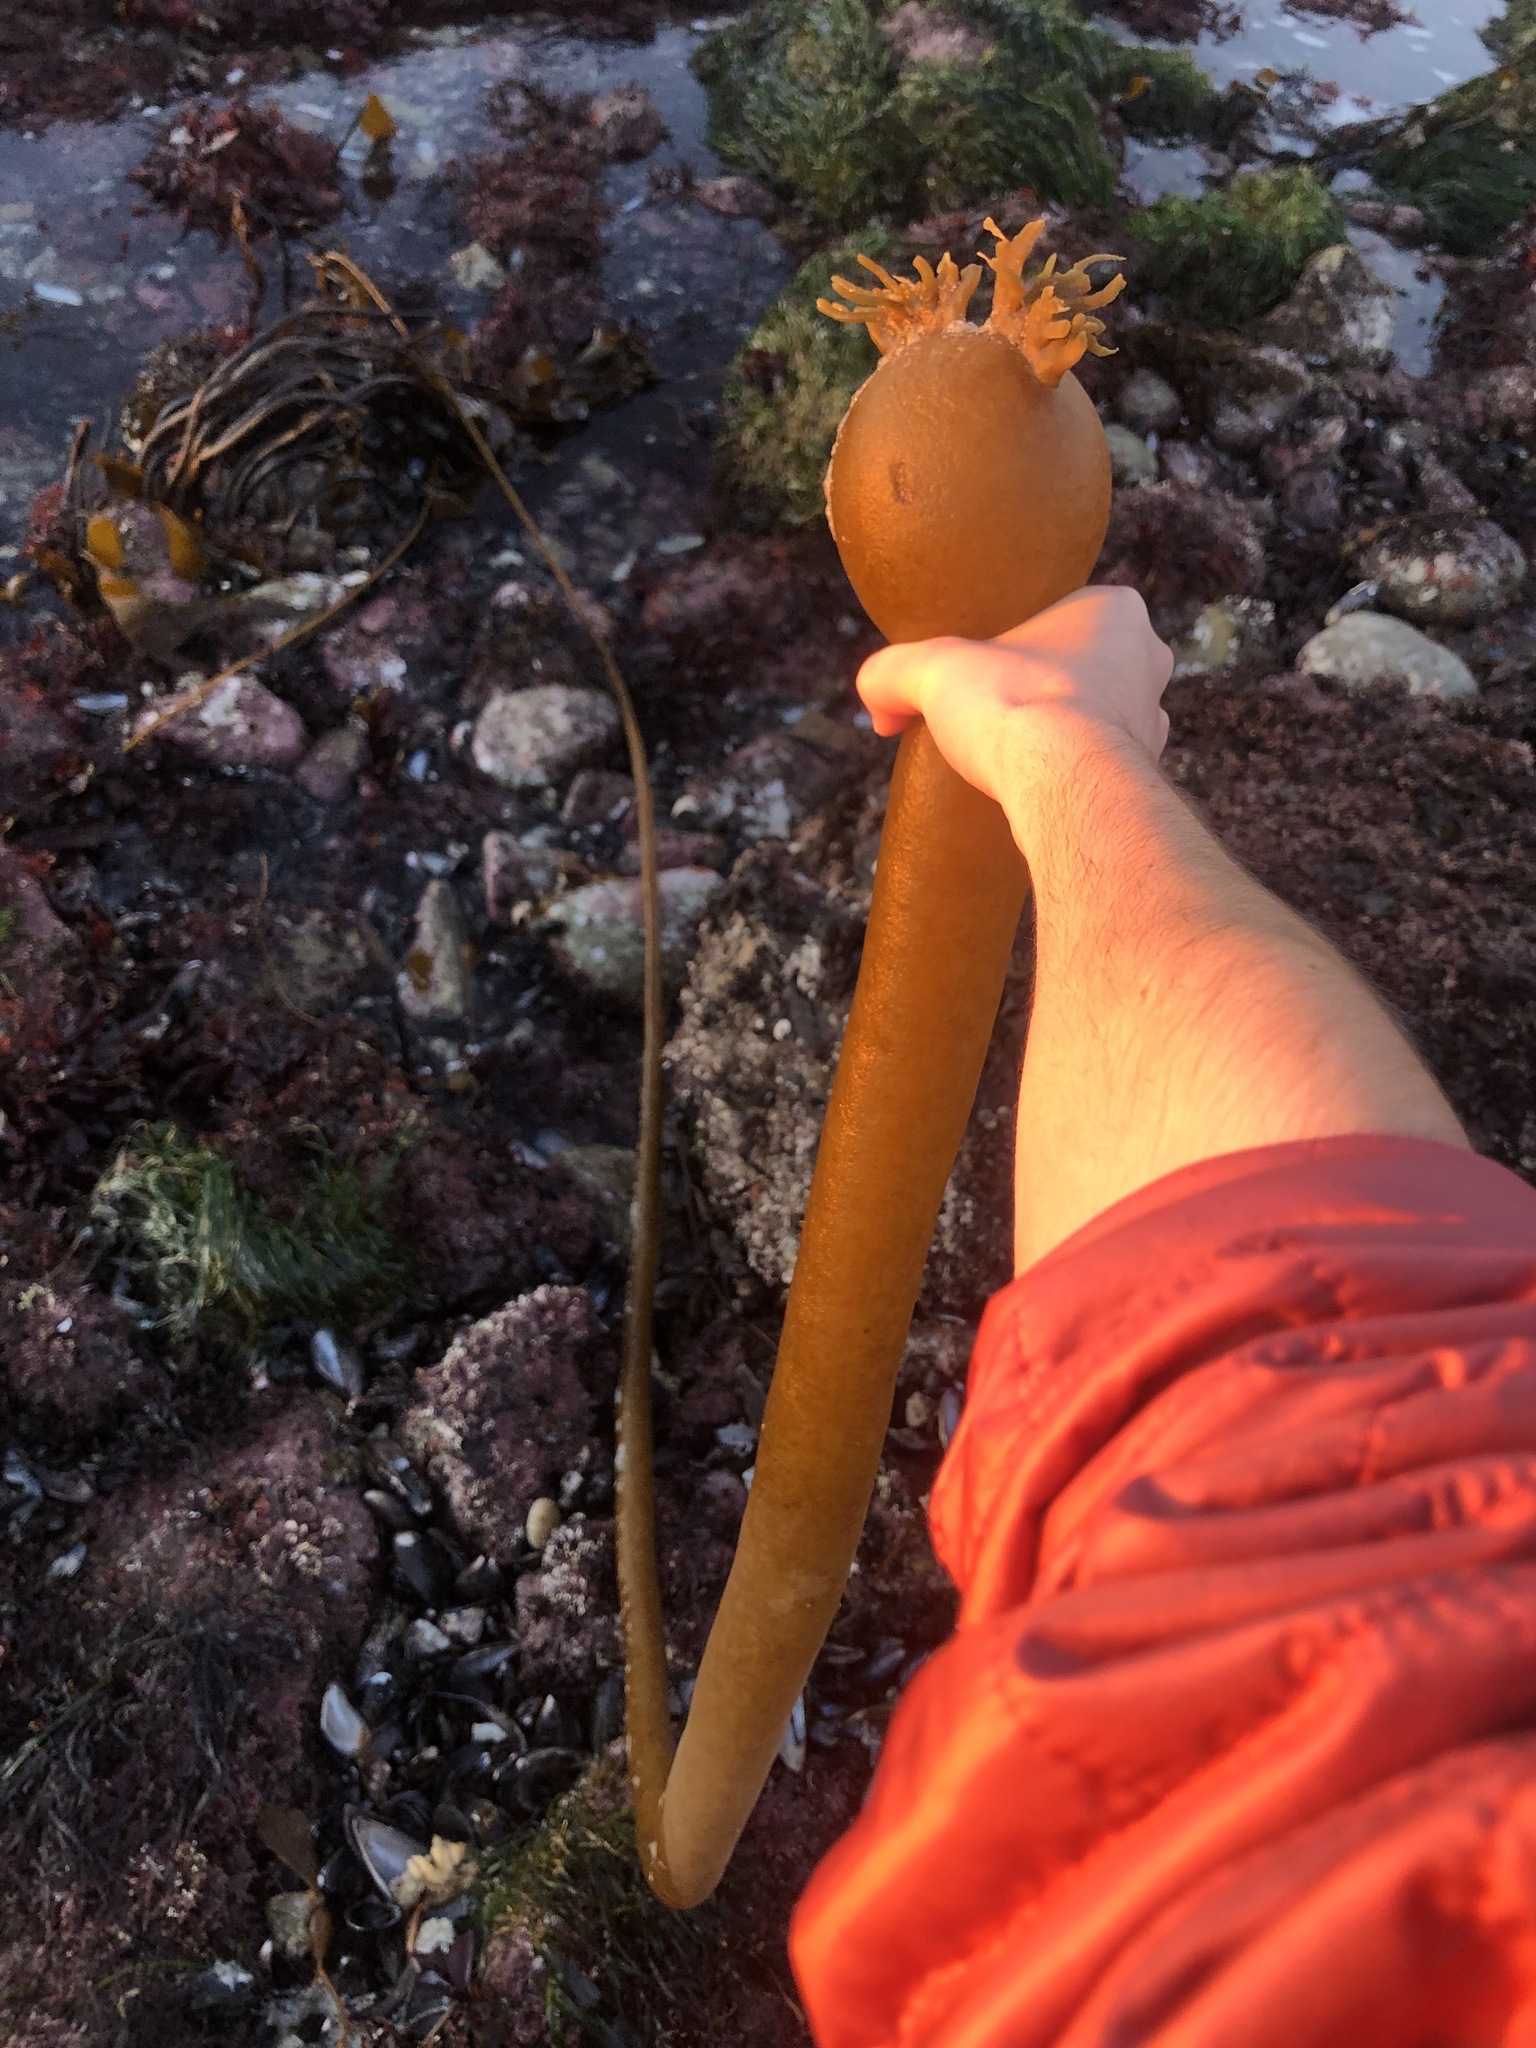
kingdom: Chromista
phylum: Ochrophyta
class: Phaeophyceae
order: Laminariales
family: Laminariaceae
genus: Nereocystis
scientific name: Nereocystis luetkeana
